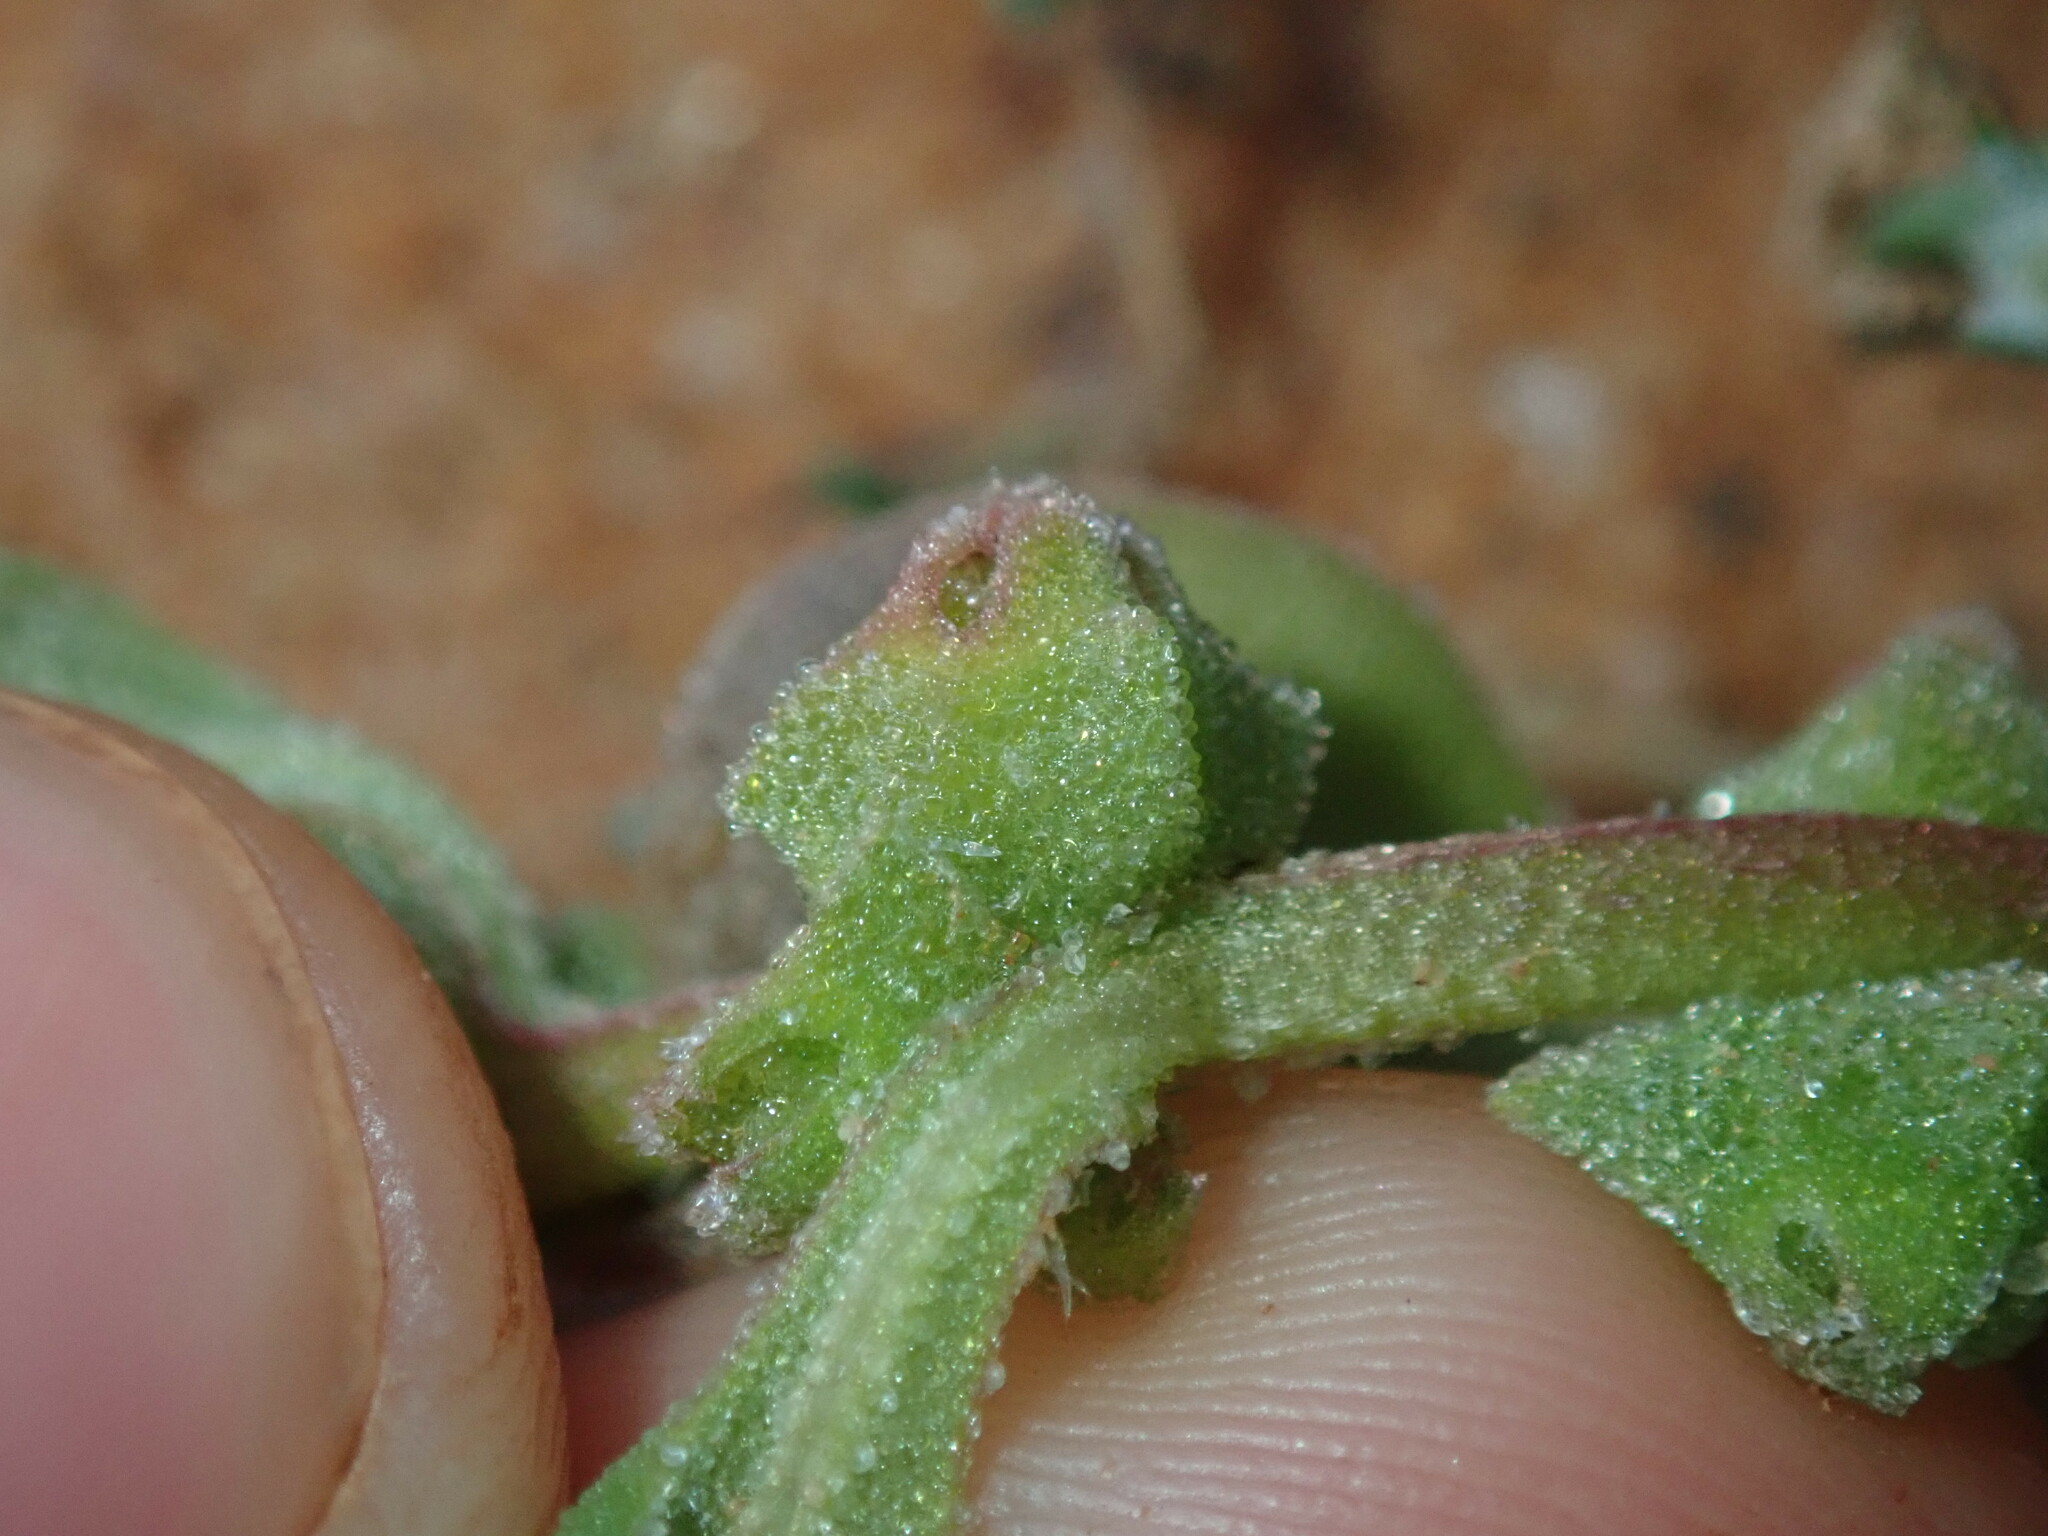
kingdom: Plantae
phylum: Tracheophyta
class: Magnoliopsida
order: Caryophyllales
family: Aizoaceae
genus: Tetragonia
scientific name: Tetragonia eremaea
